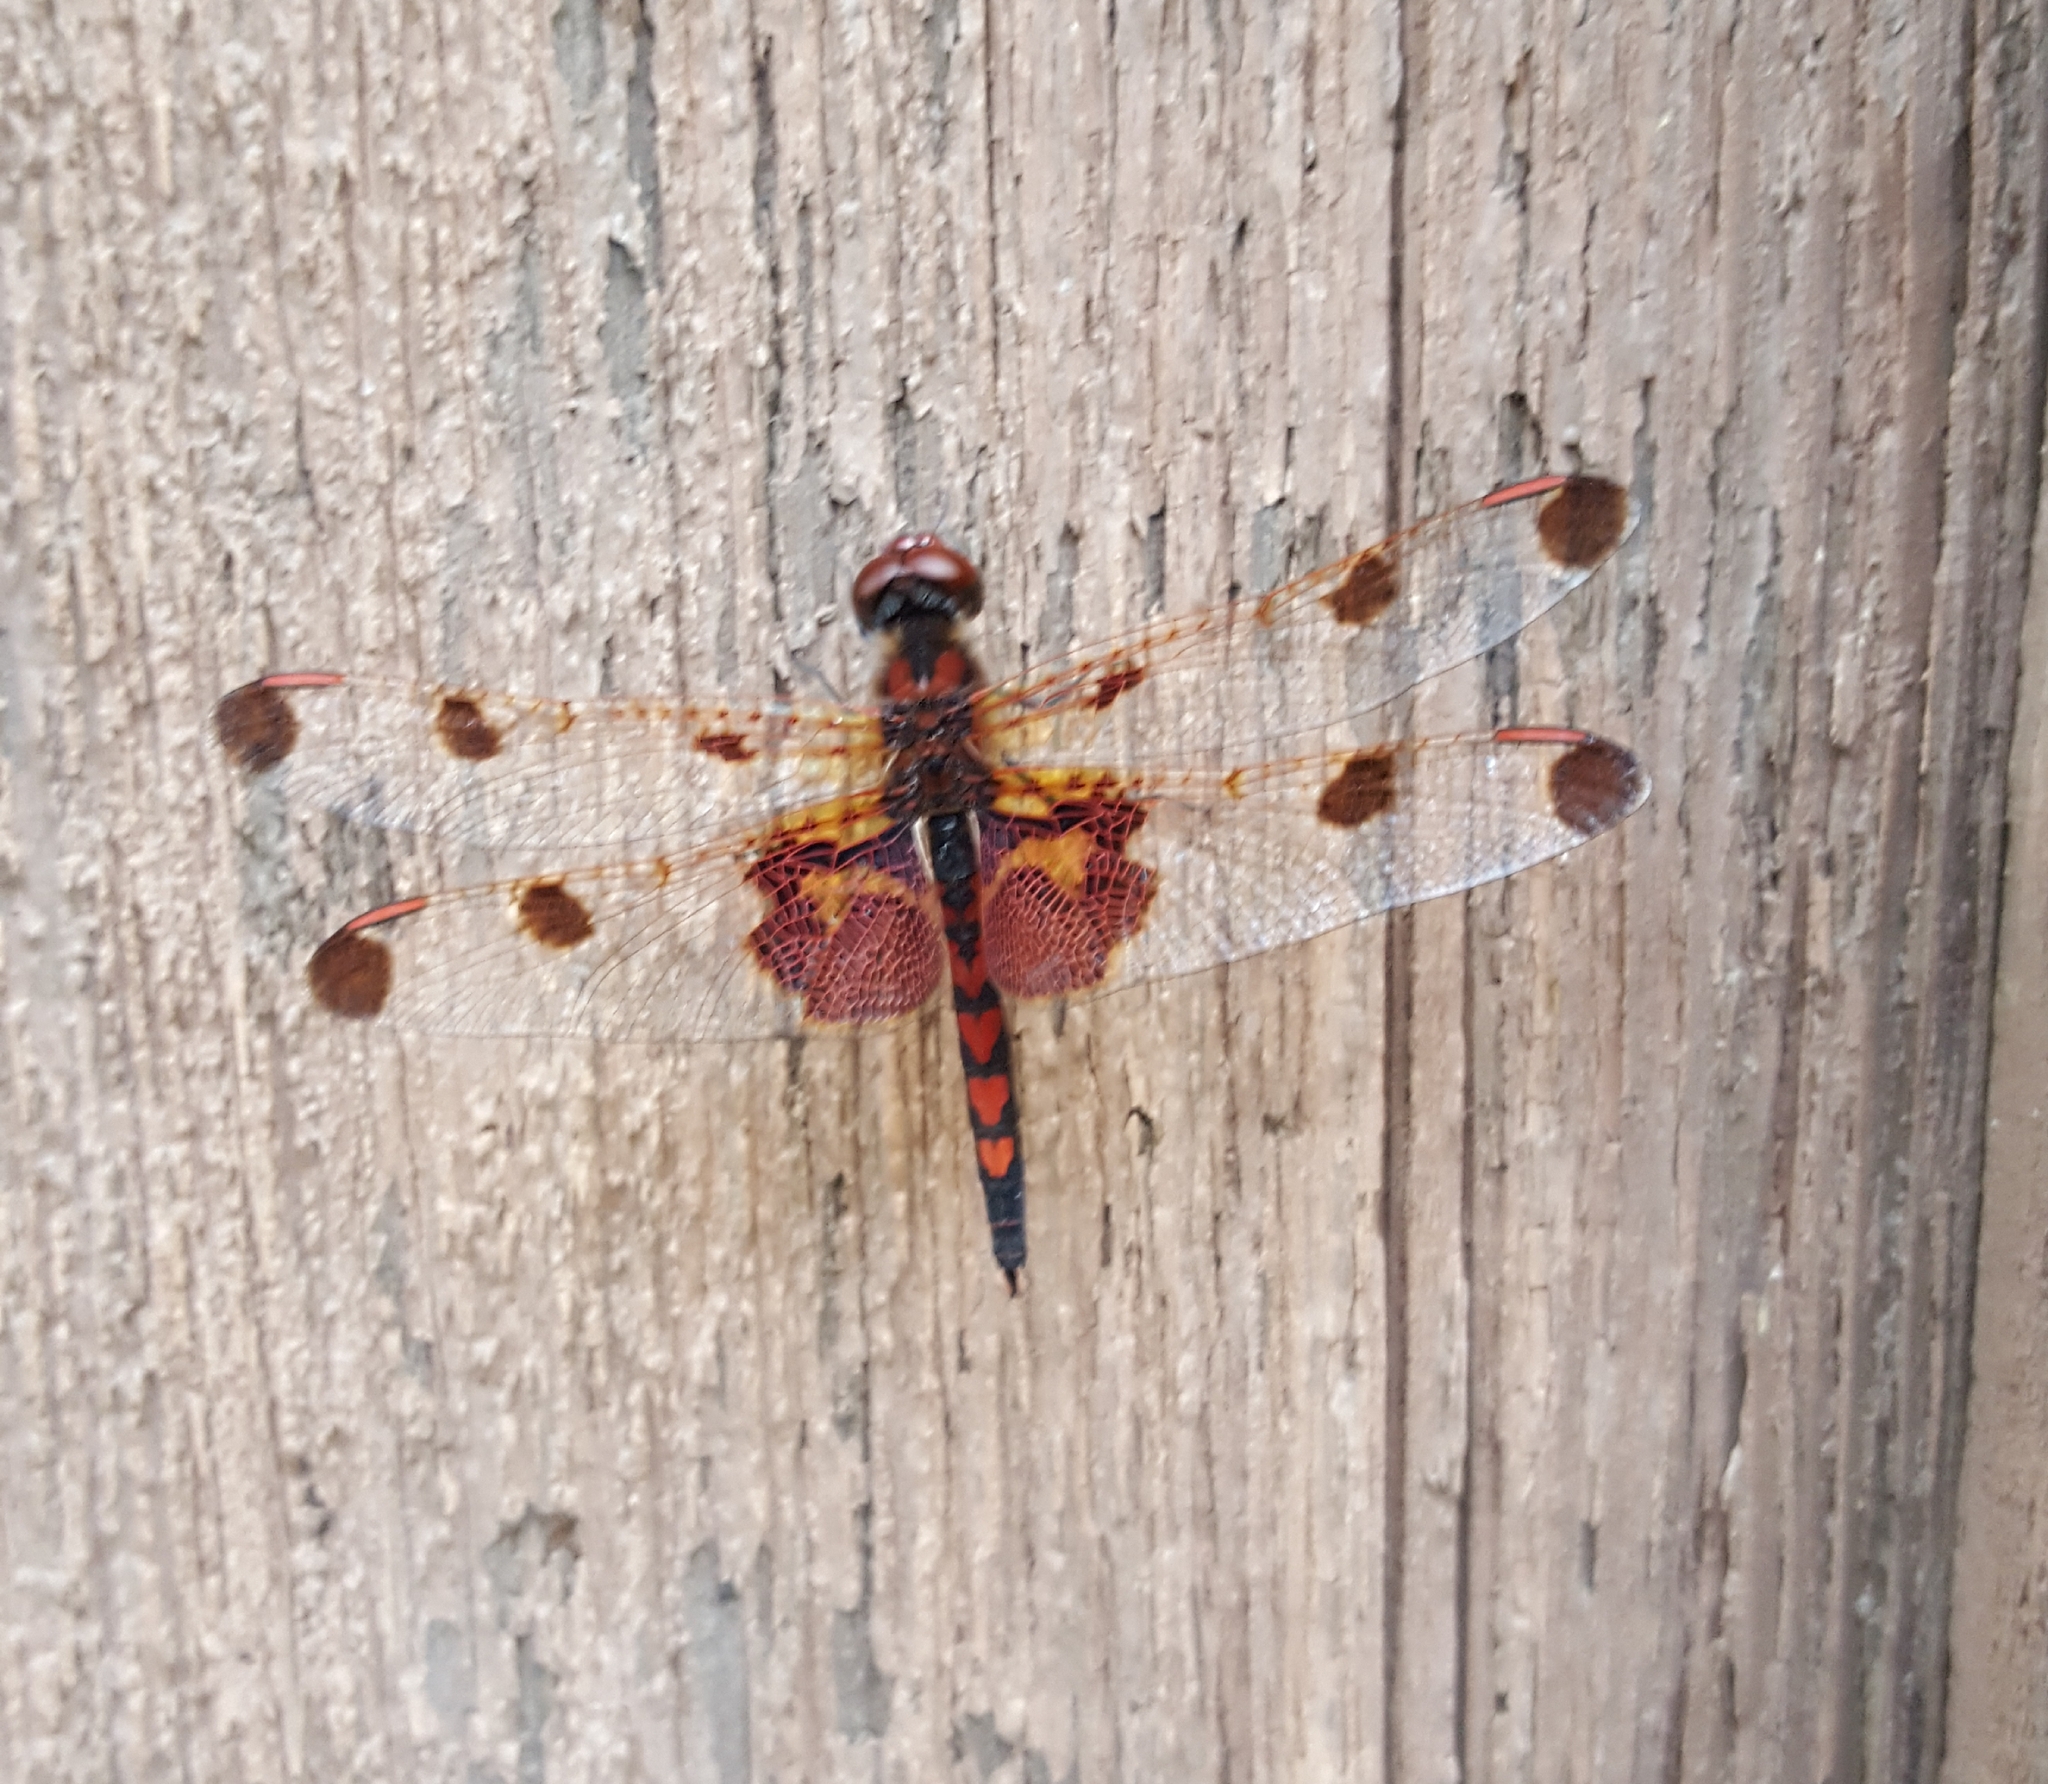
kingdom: Animalia
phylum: Arthropoda
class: Insecta
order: Odonata
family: Libellulidae
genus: Celithemis
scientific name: Celithemis elisa
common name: Calico pennant
